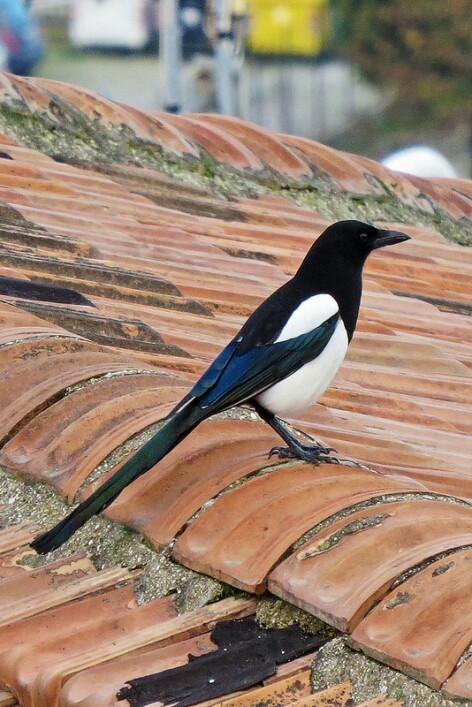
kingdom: Animalia
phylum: Chordata
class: Aves
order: Passeriformes
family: Corvidae
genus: Pica
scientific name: Pica pica
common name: Eurasian magpie
